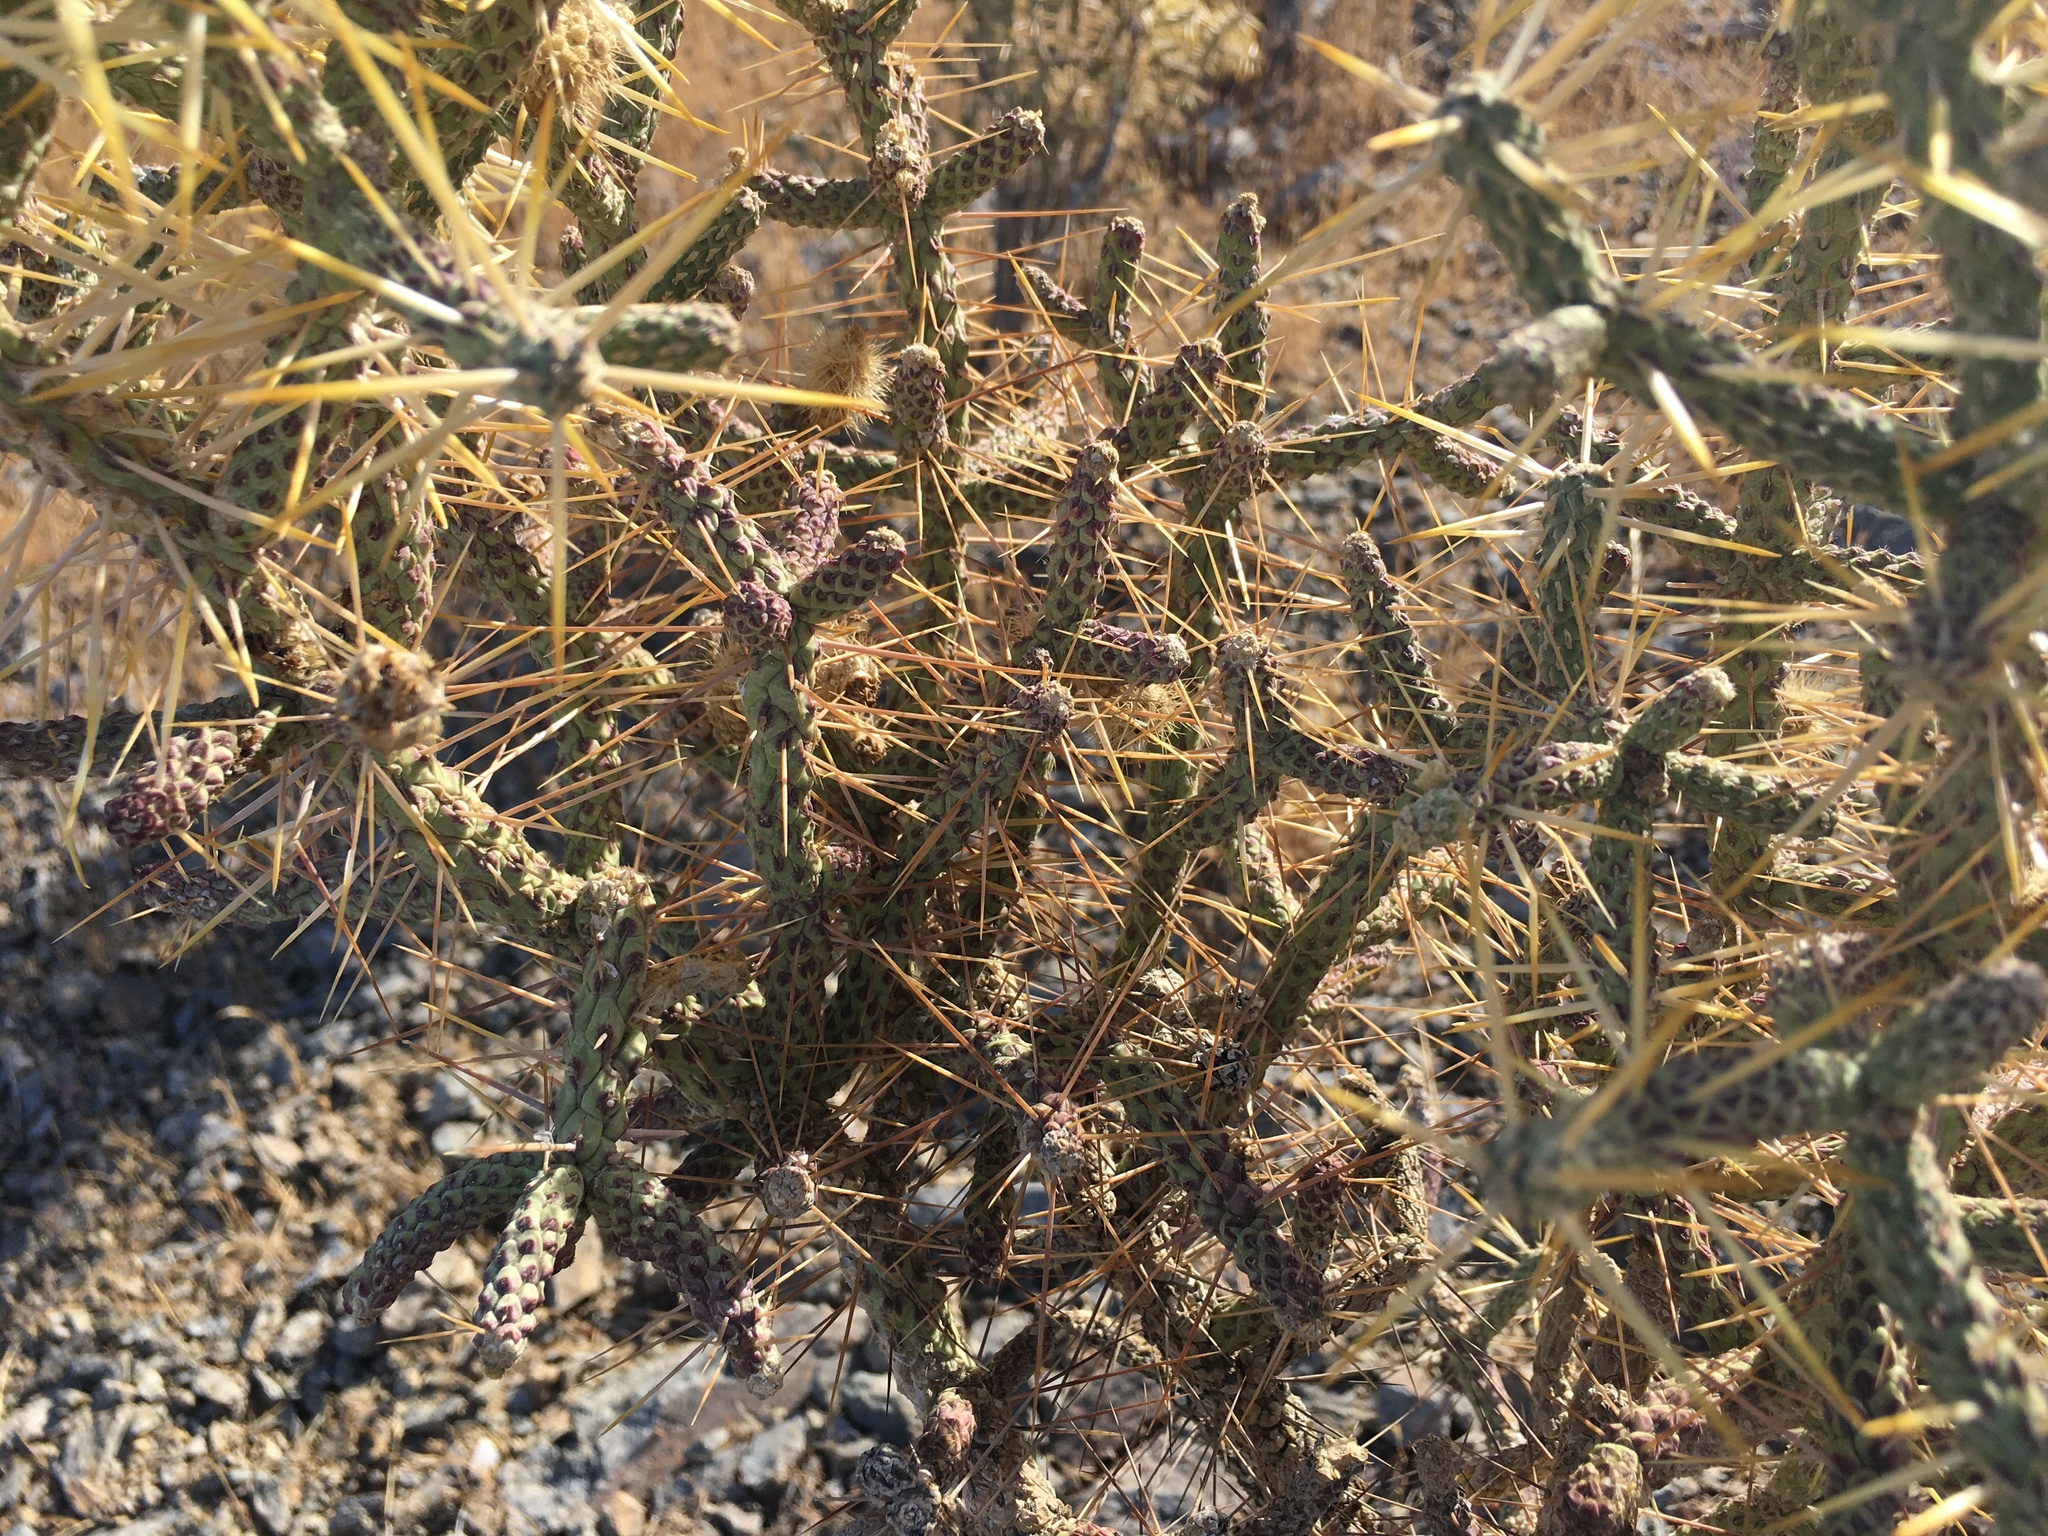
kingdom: Plantae
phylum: Tracheophyta
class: Magnoliopsida
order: Caryophyllales
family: Cactaceae
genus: Cylindropuntia
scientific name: Cylindropuntia ramosissima
